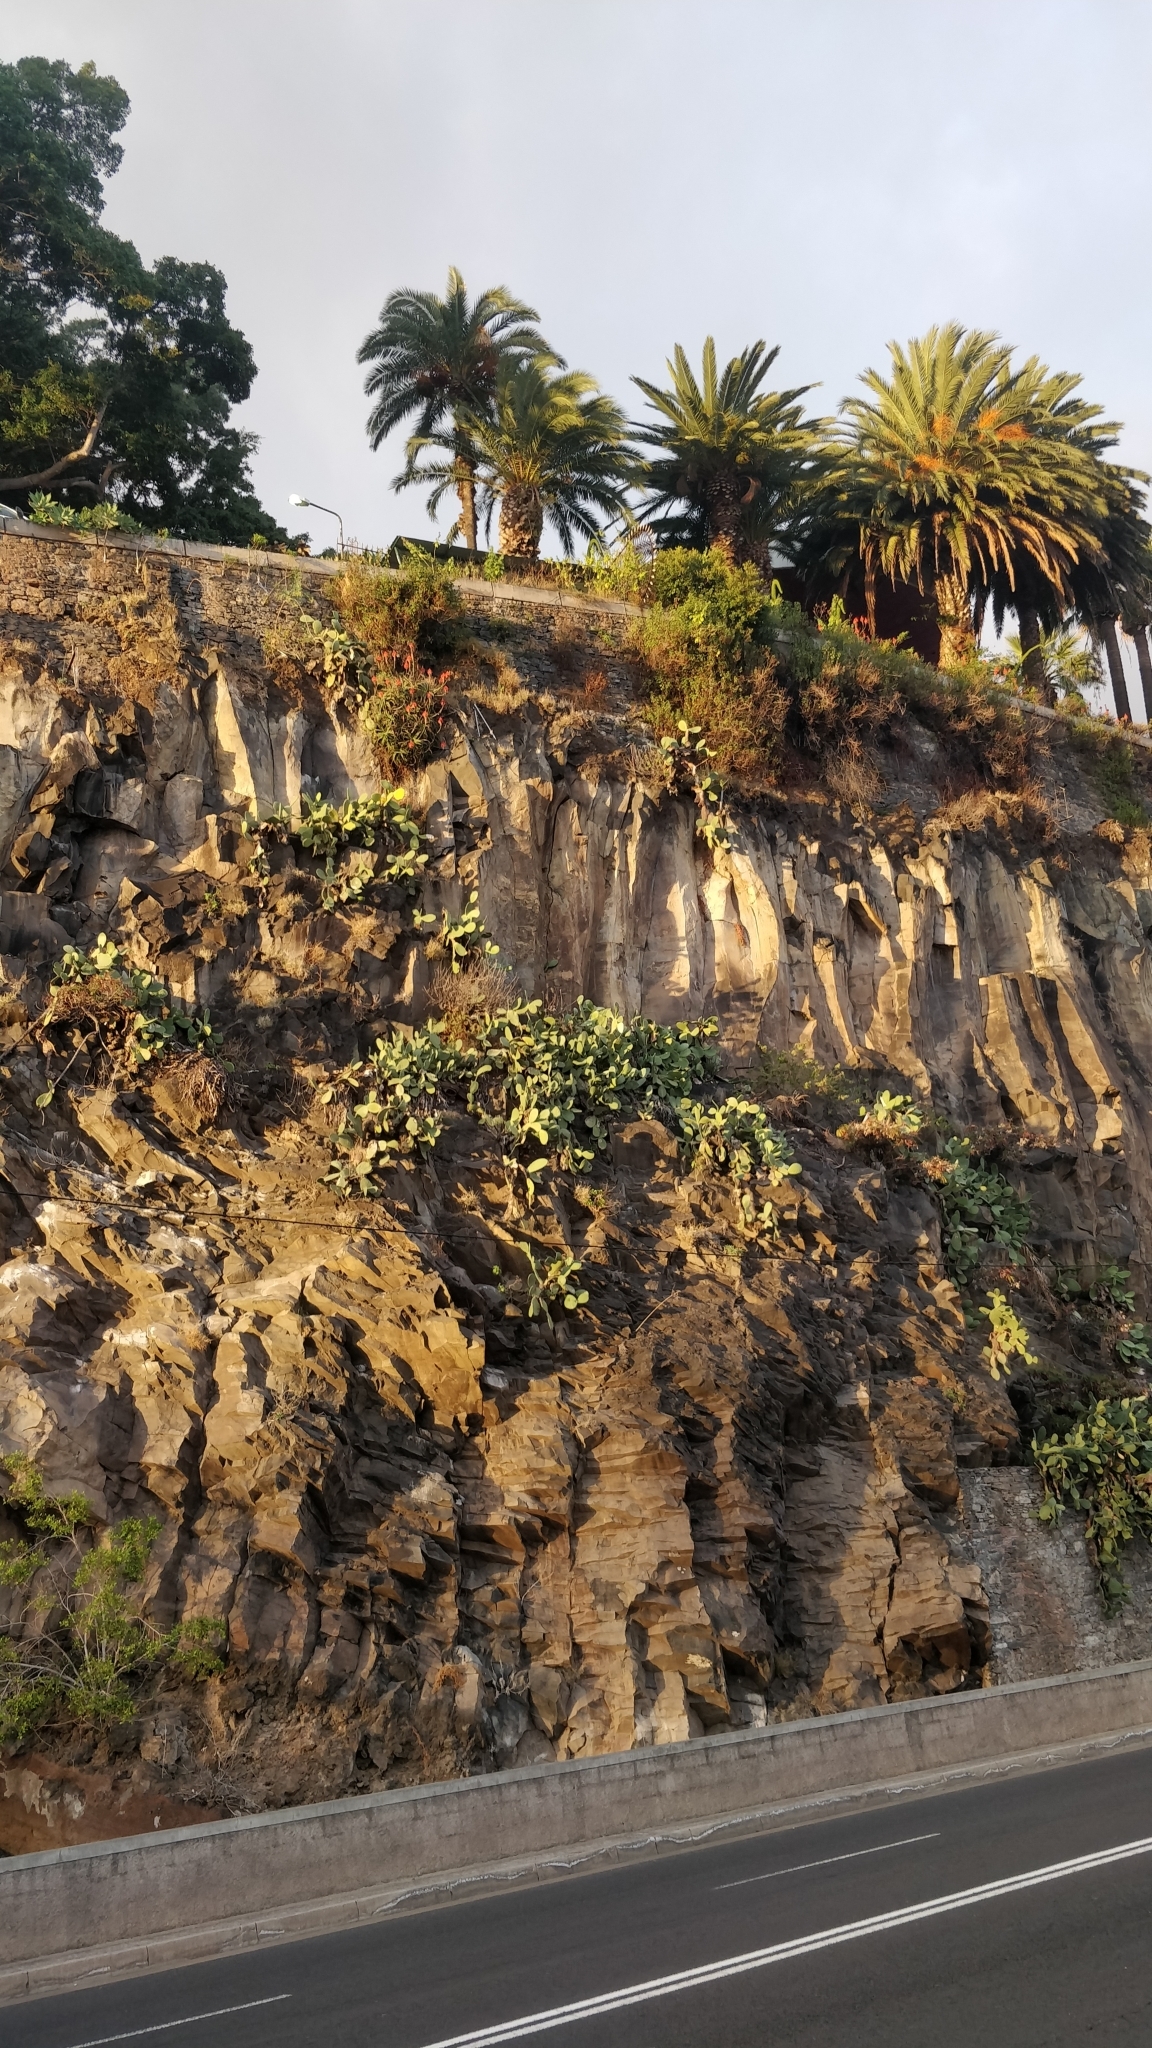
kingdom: Plantae
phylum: Tracheophyta
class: Magnoliopsida
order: Caryophyllales
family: Cactaceae
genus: Opuntia
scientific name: Opuntia ficus-indica
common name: Barbary fig
